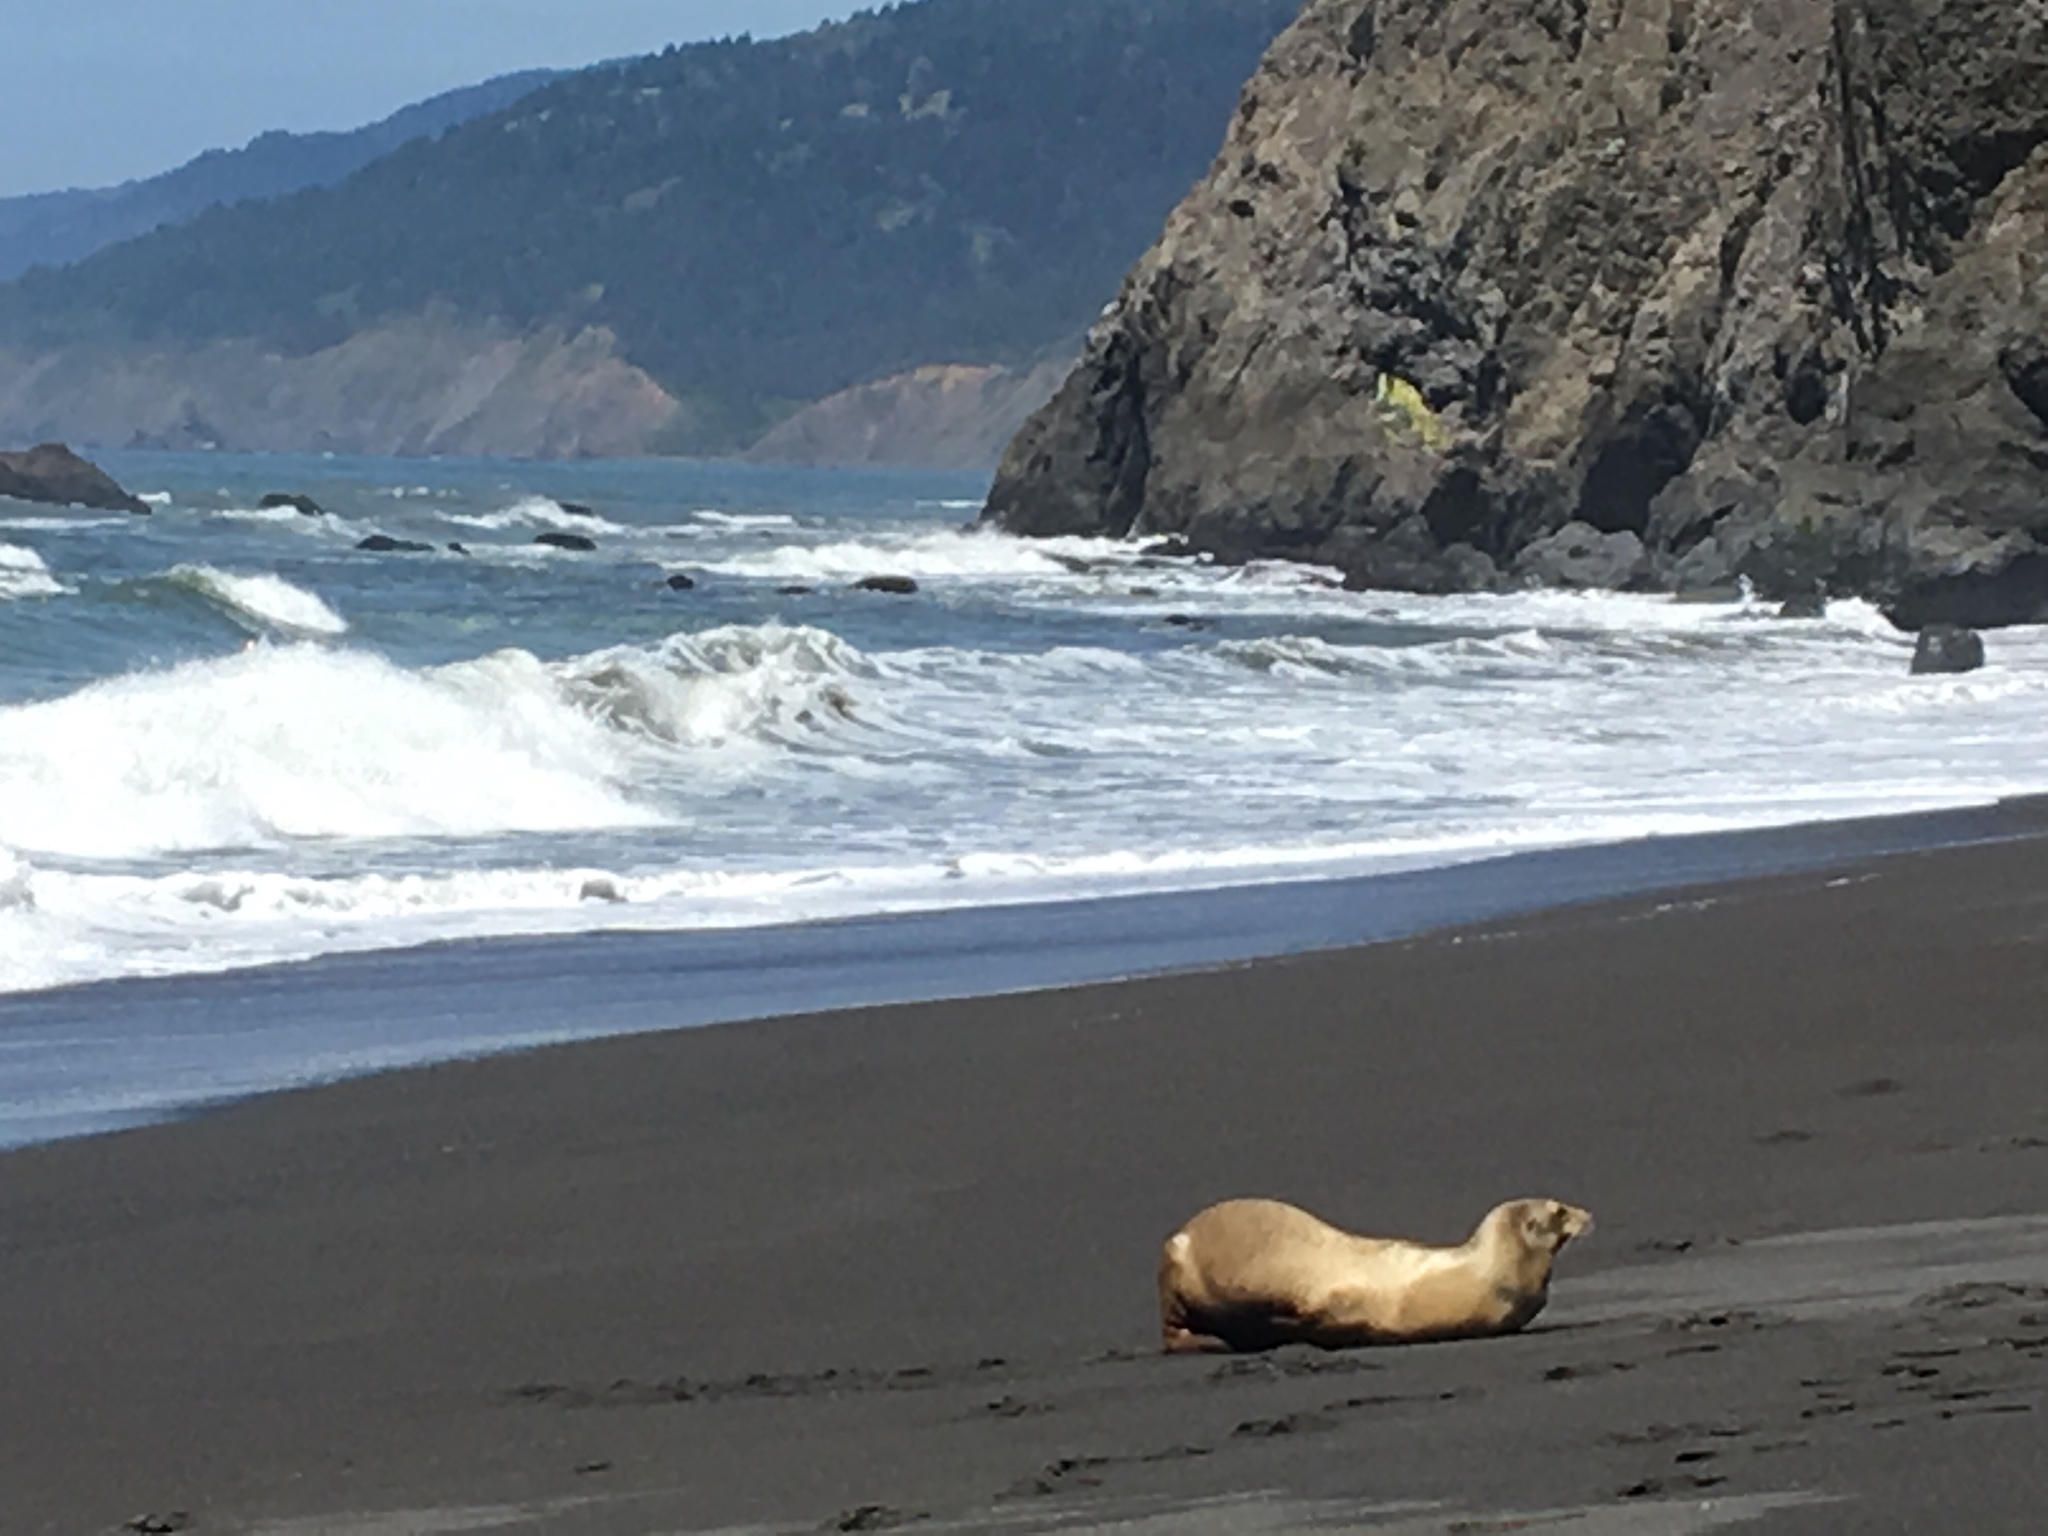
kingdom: Animalia
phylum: Chordata
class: Mammalia
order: Carnivora
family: Otariidae
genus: Zalophus
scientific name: Zalophus californianus
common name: California sea lion
